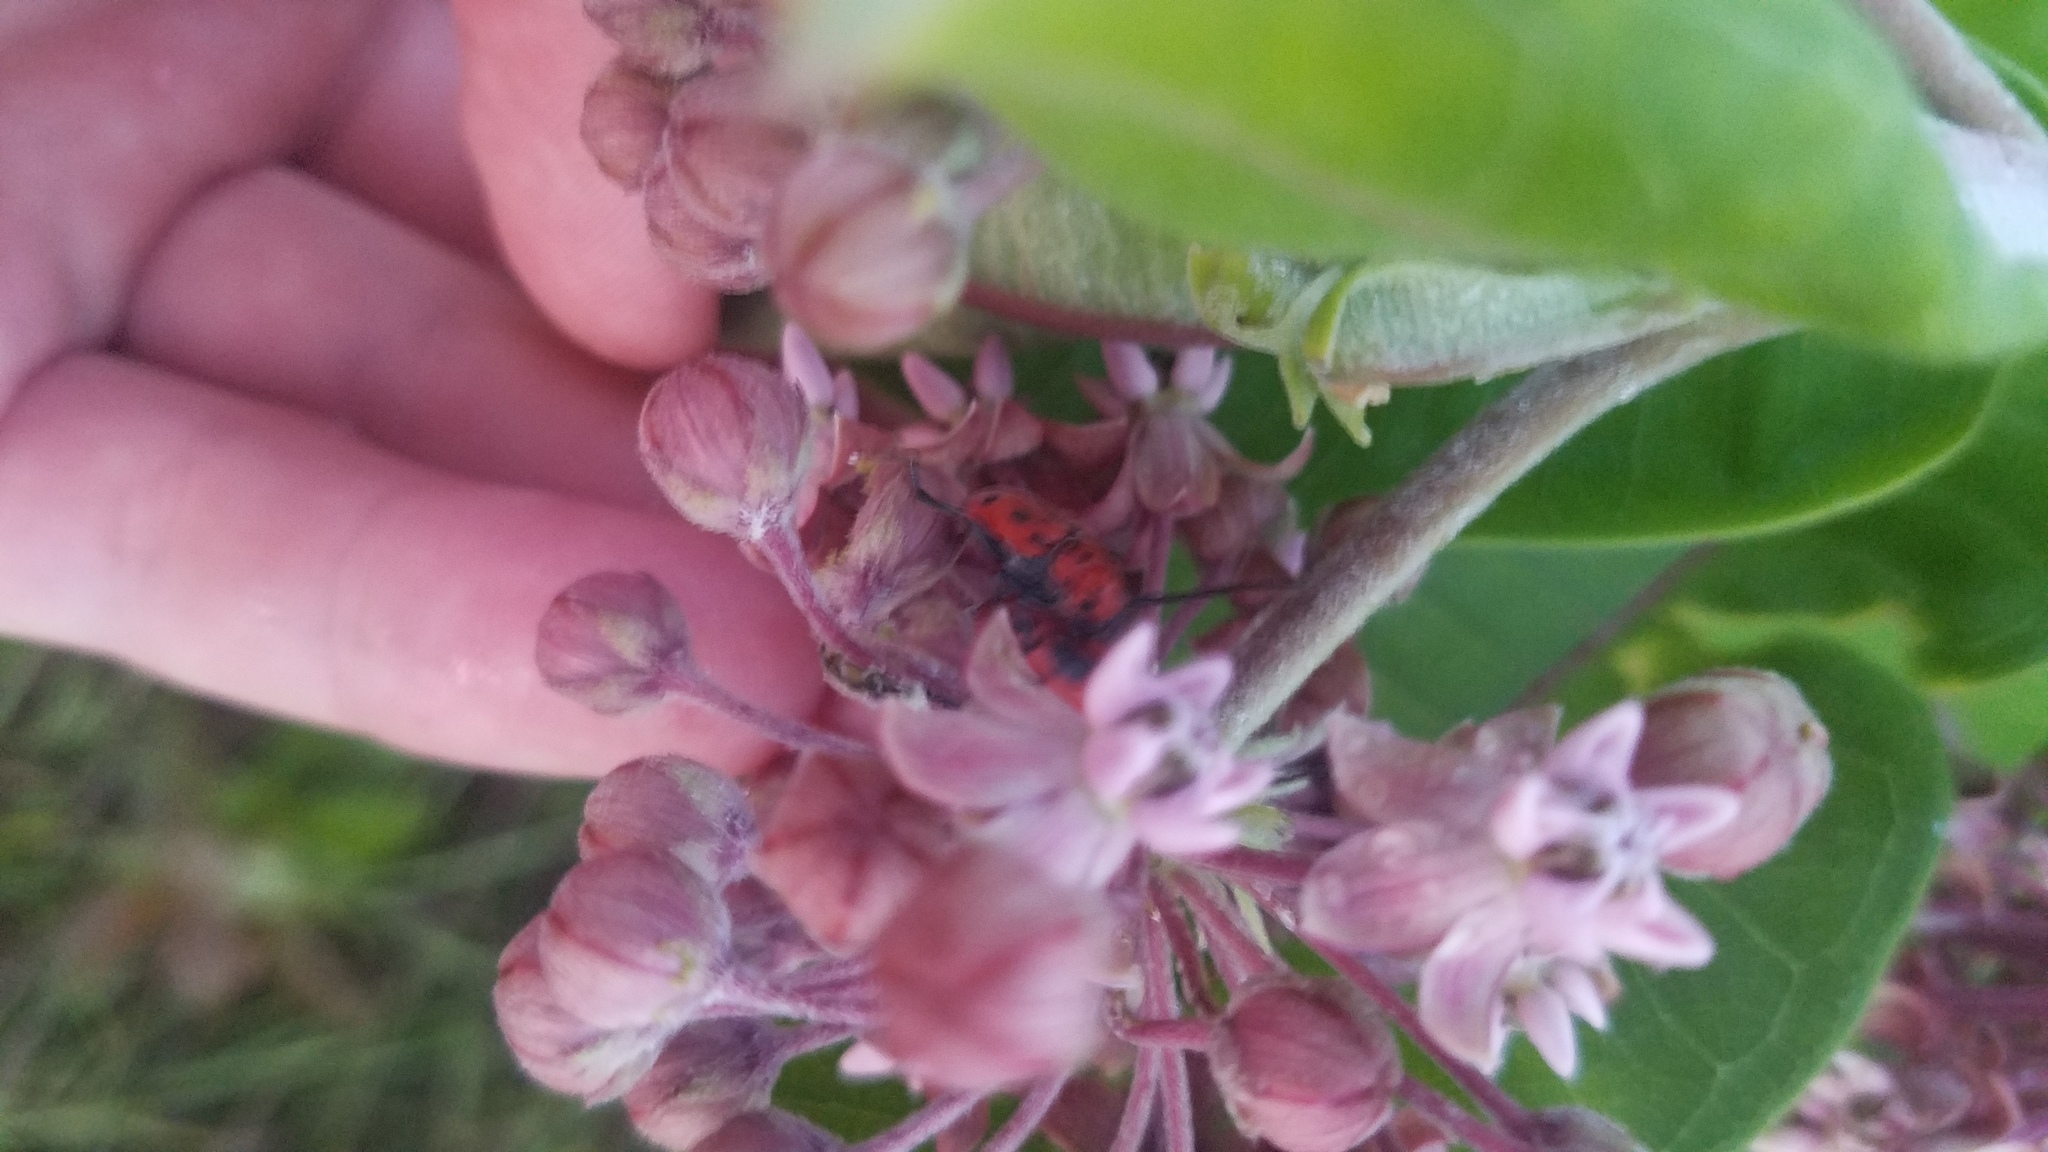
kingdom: Animalia
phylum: Arthropoda
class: Insecta
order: Coleoptera
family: Cerambycidae
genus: Tetraopes
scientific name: Tetraopes tetrophthalmus
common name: Red milkweed beetle
